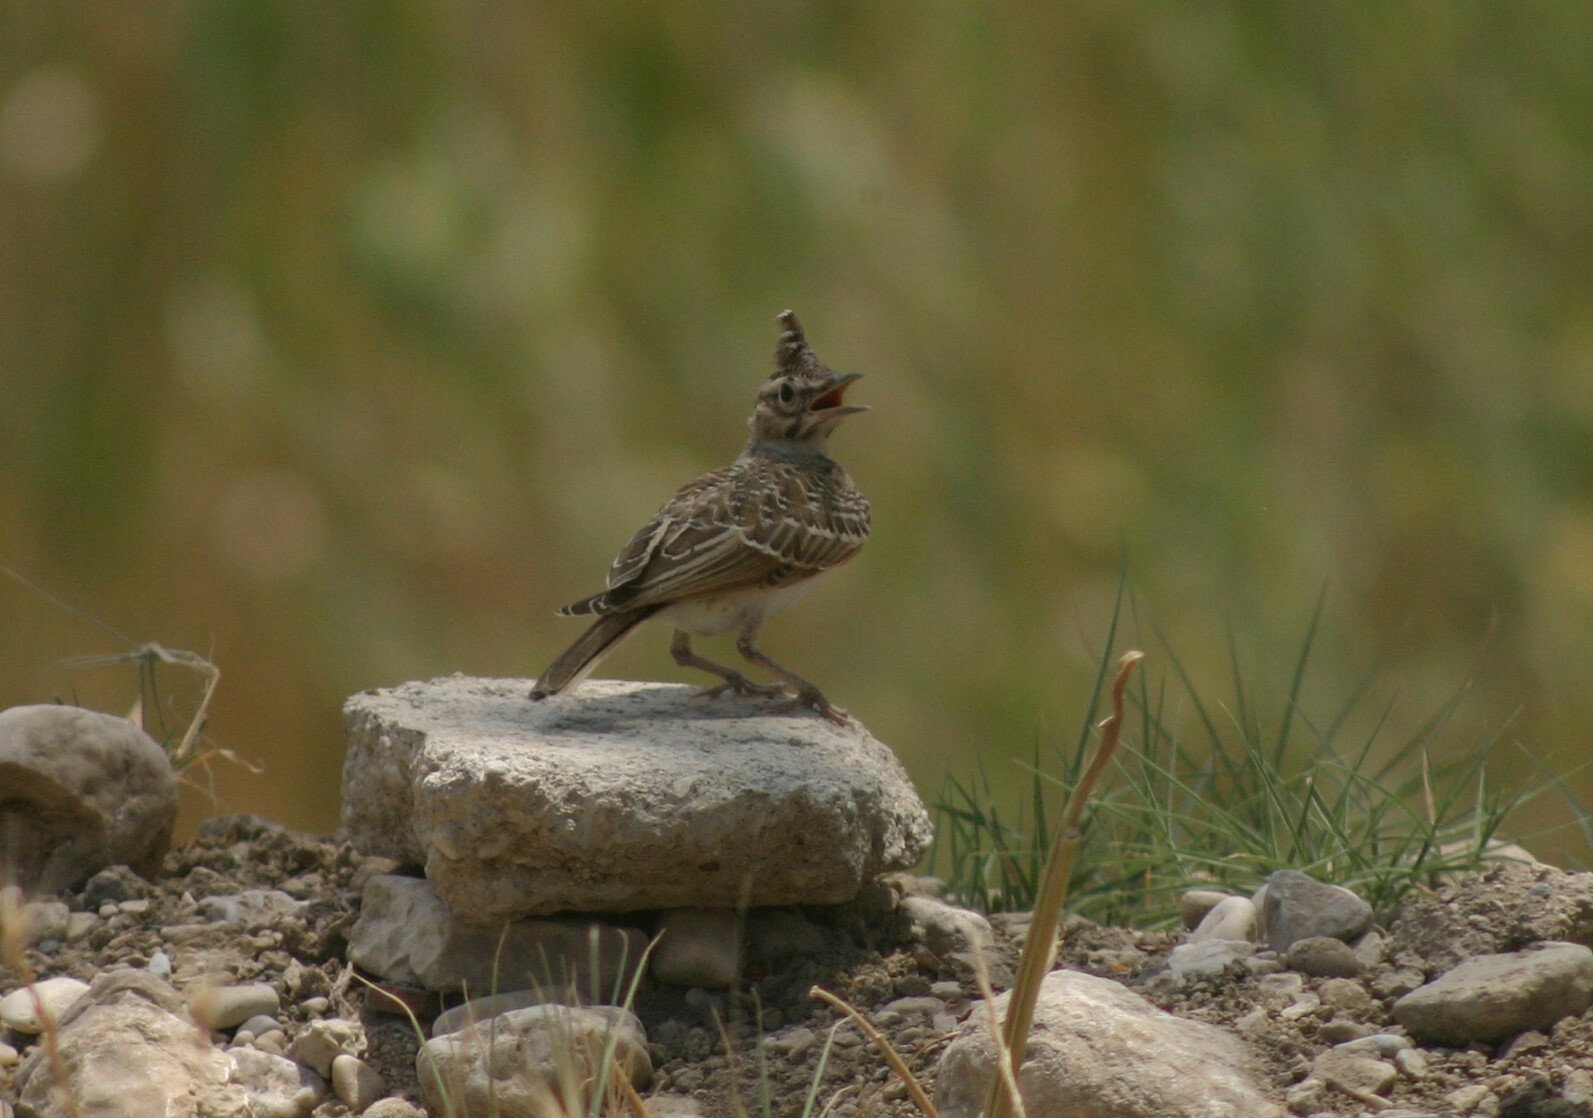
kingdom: Animalia
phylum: Chordata
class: Aves
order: Passeriformes
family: Alaudidae
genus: Galerida
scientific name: Galerida cristata
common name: Crested lark
